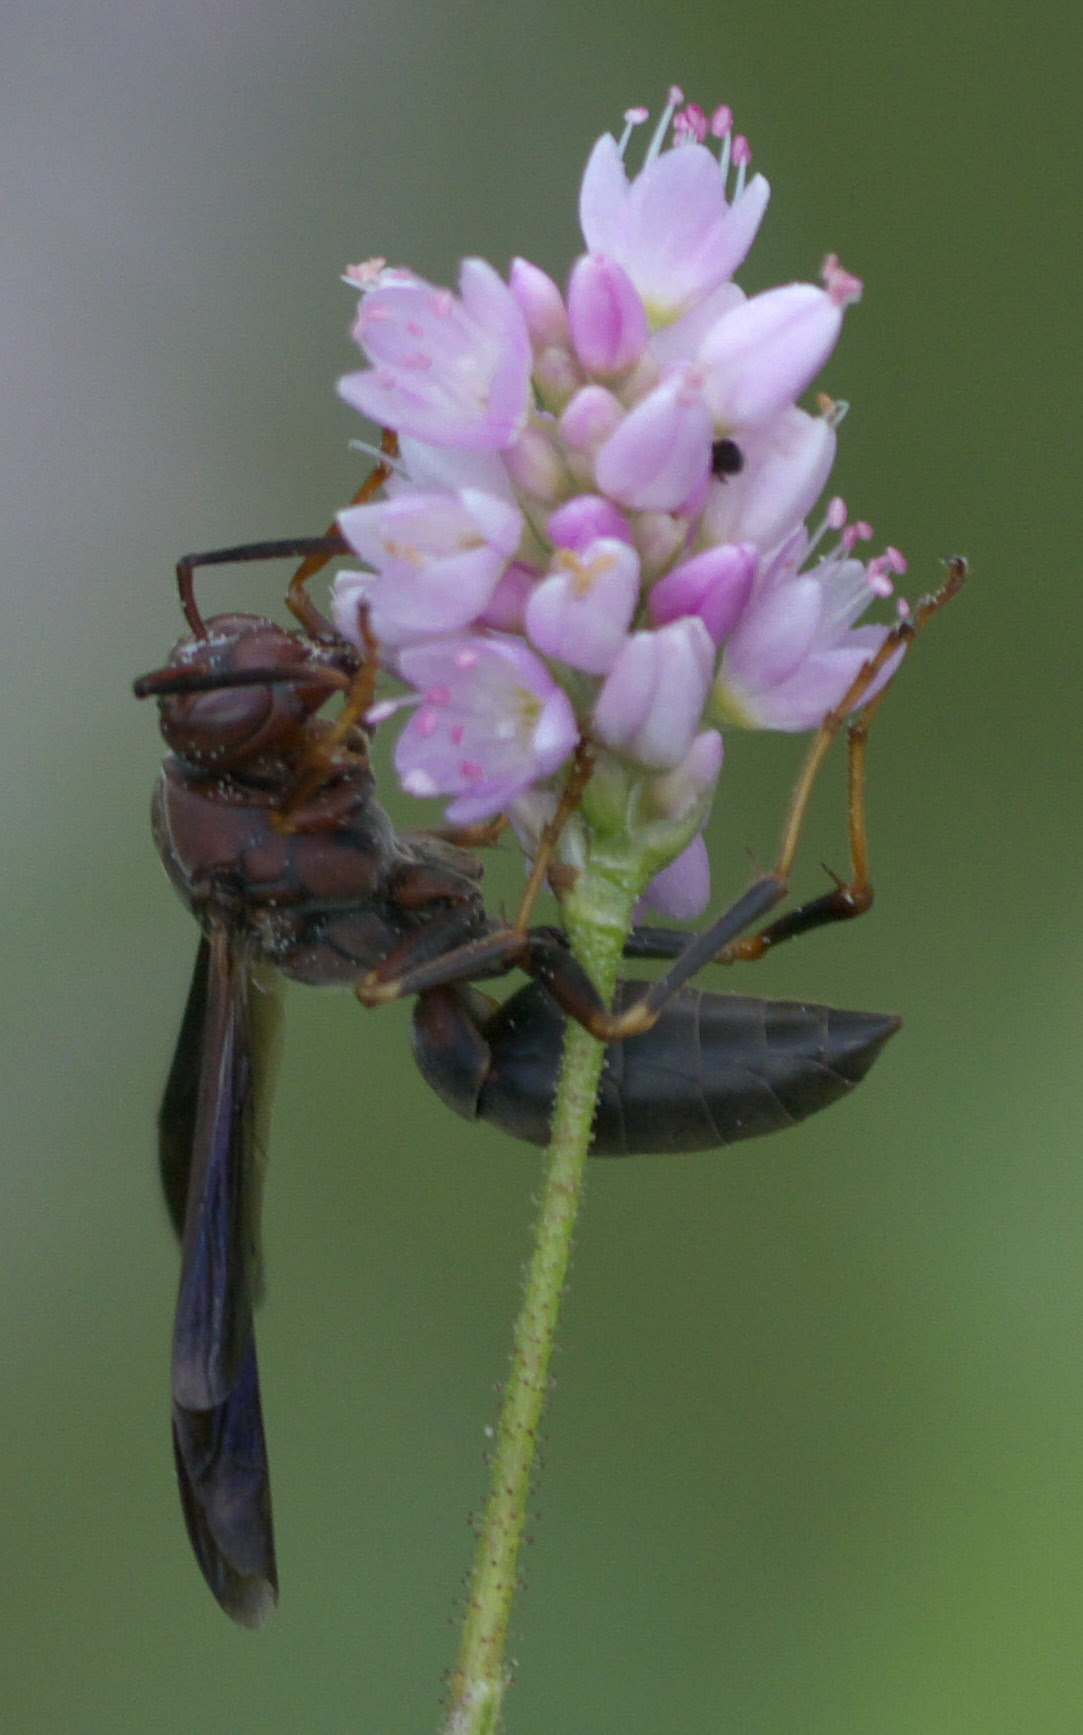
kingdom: Animalia
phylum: Arthropoda
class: Insecta
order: Hymenoptera
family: Eumenidae
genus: Polistes
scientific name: Polistes metricus
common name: Metric paper wasp
